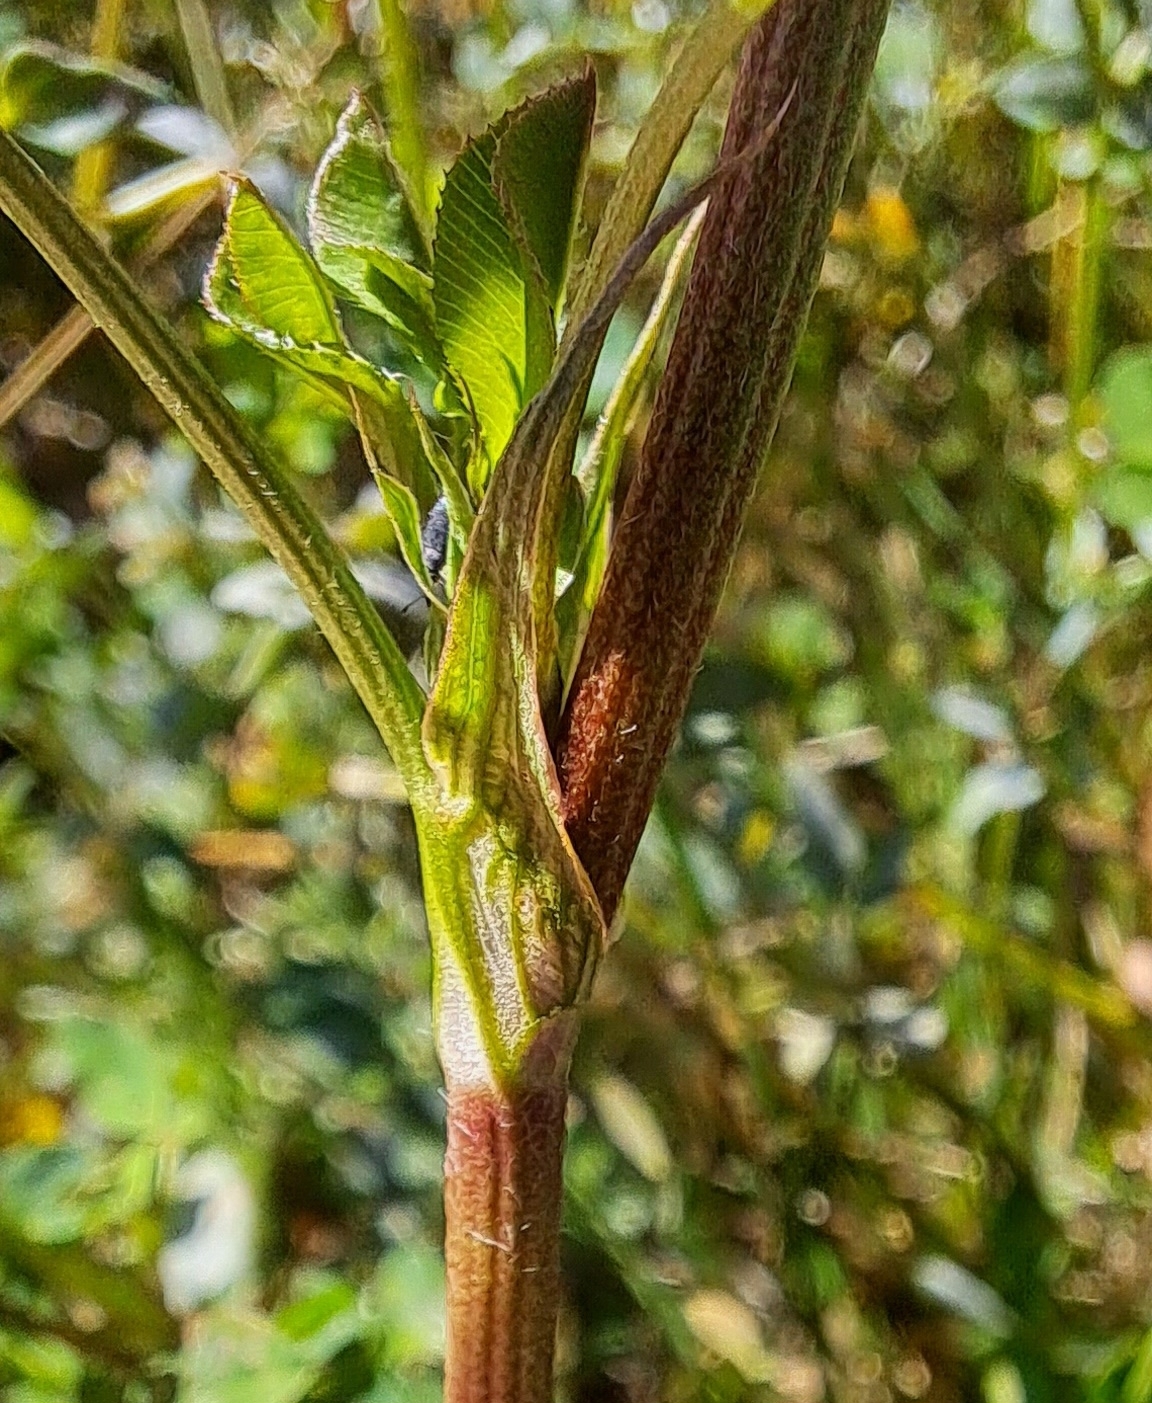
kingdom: Plantae
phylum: Tracheophyta
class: Magnoliopsida
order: Fabales
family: Fabaceae
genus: Trifolium
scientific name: Trifolium hybridum
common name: Alsike clover
